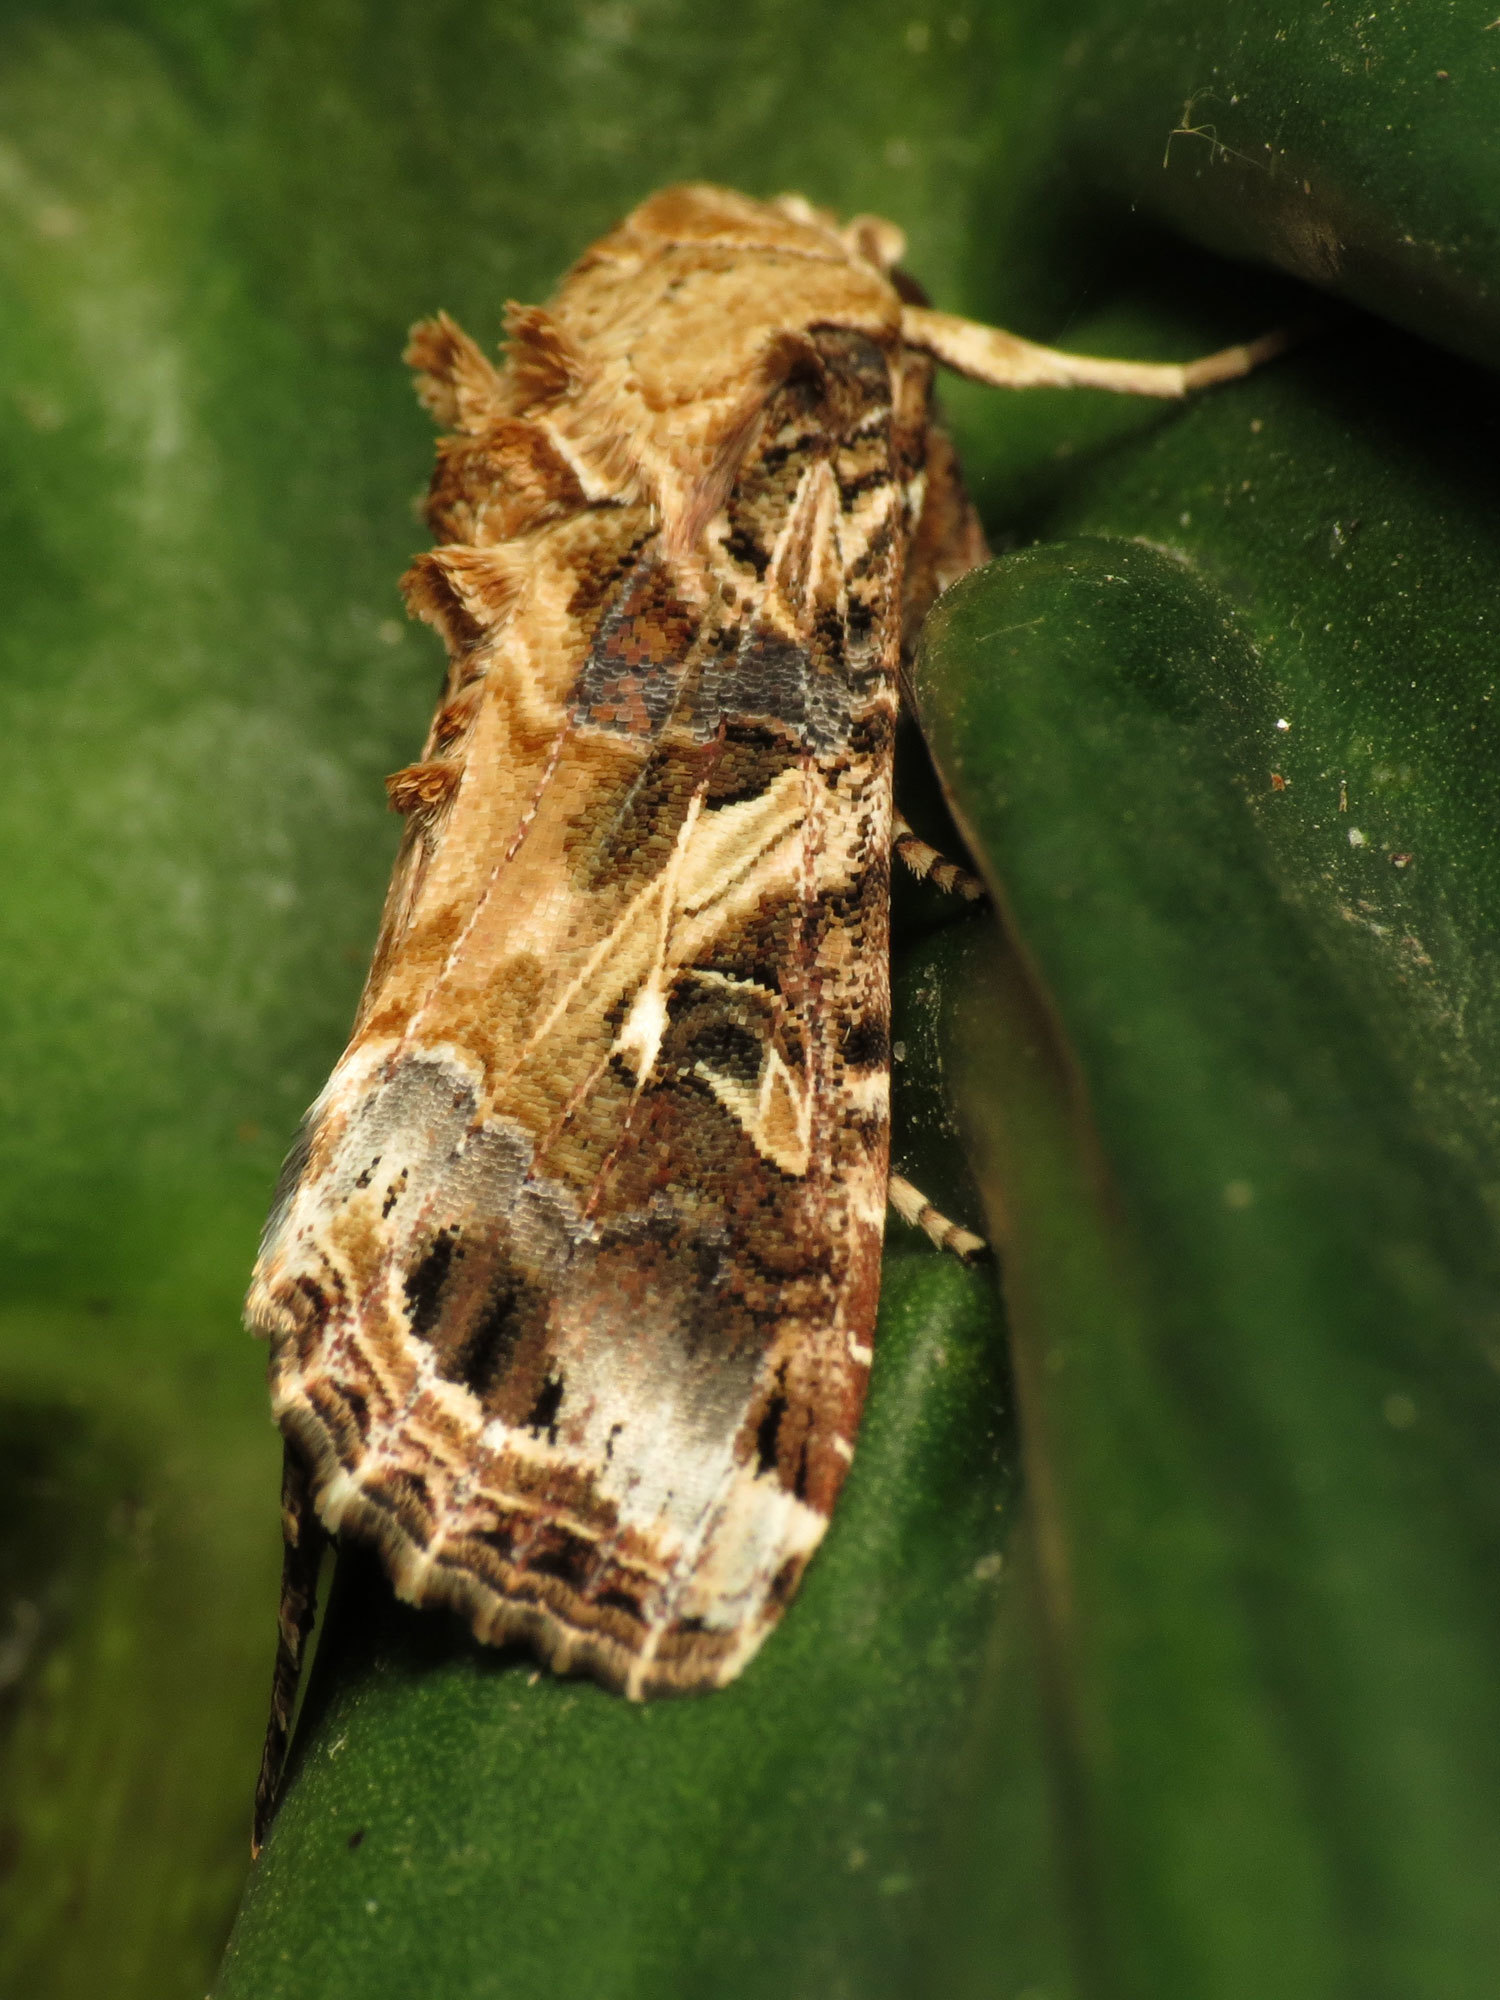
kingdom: Animalia
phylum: Arthropoda
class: Insecta
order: Lepidoptera
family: Noctuidae
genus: Spodoptera
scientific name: Spodoptera ornithogalli
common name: Yellow-striped armyworm
